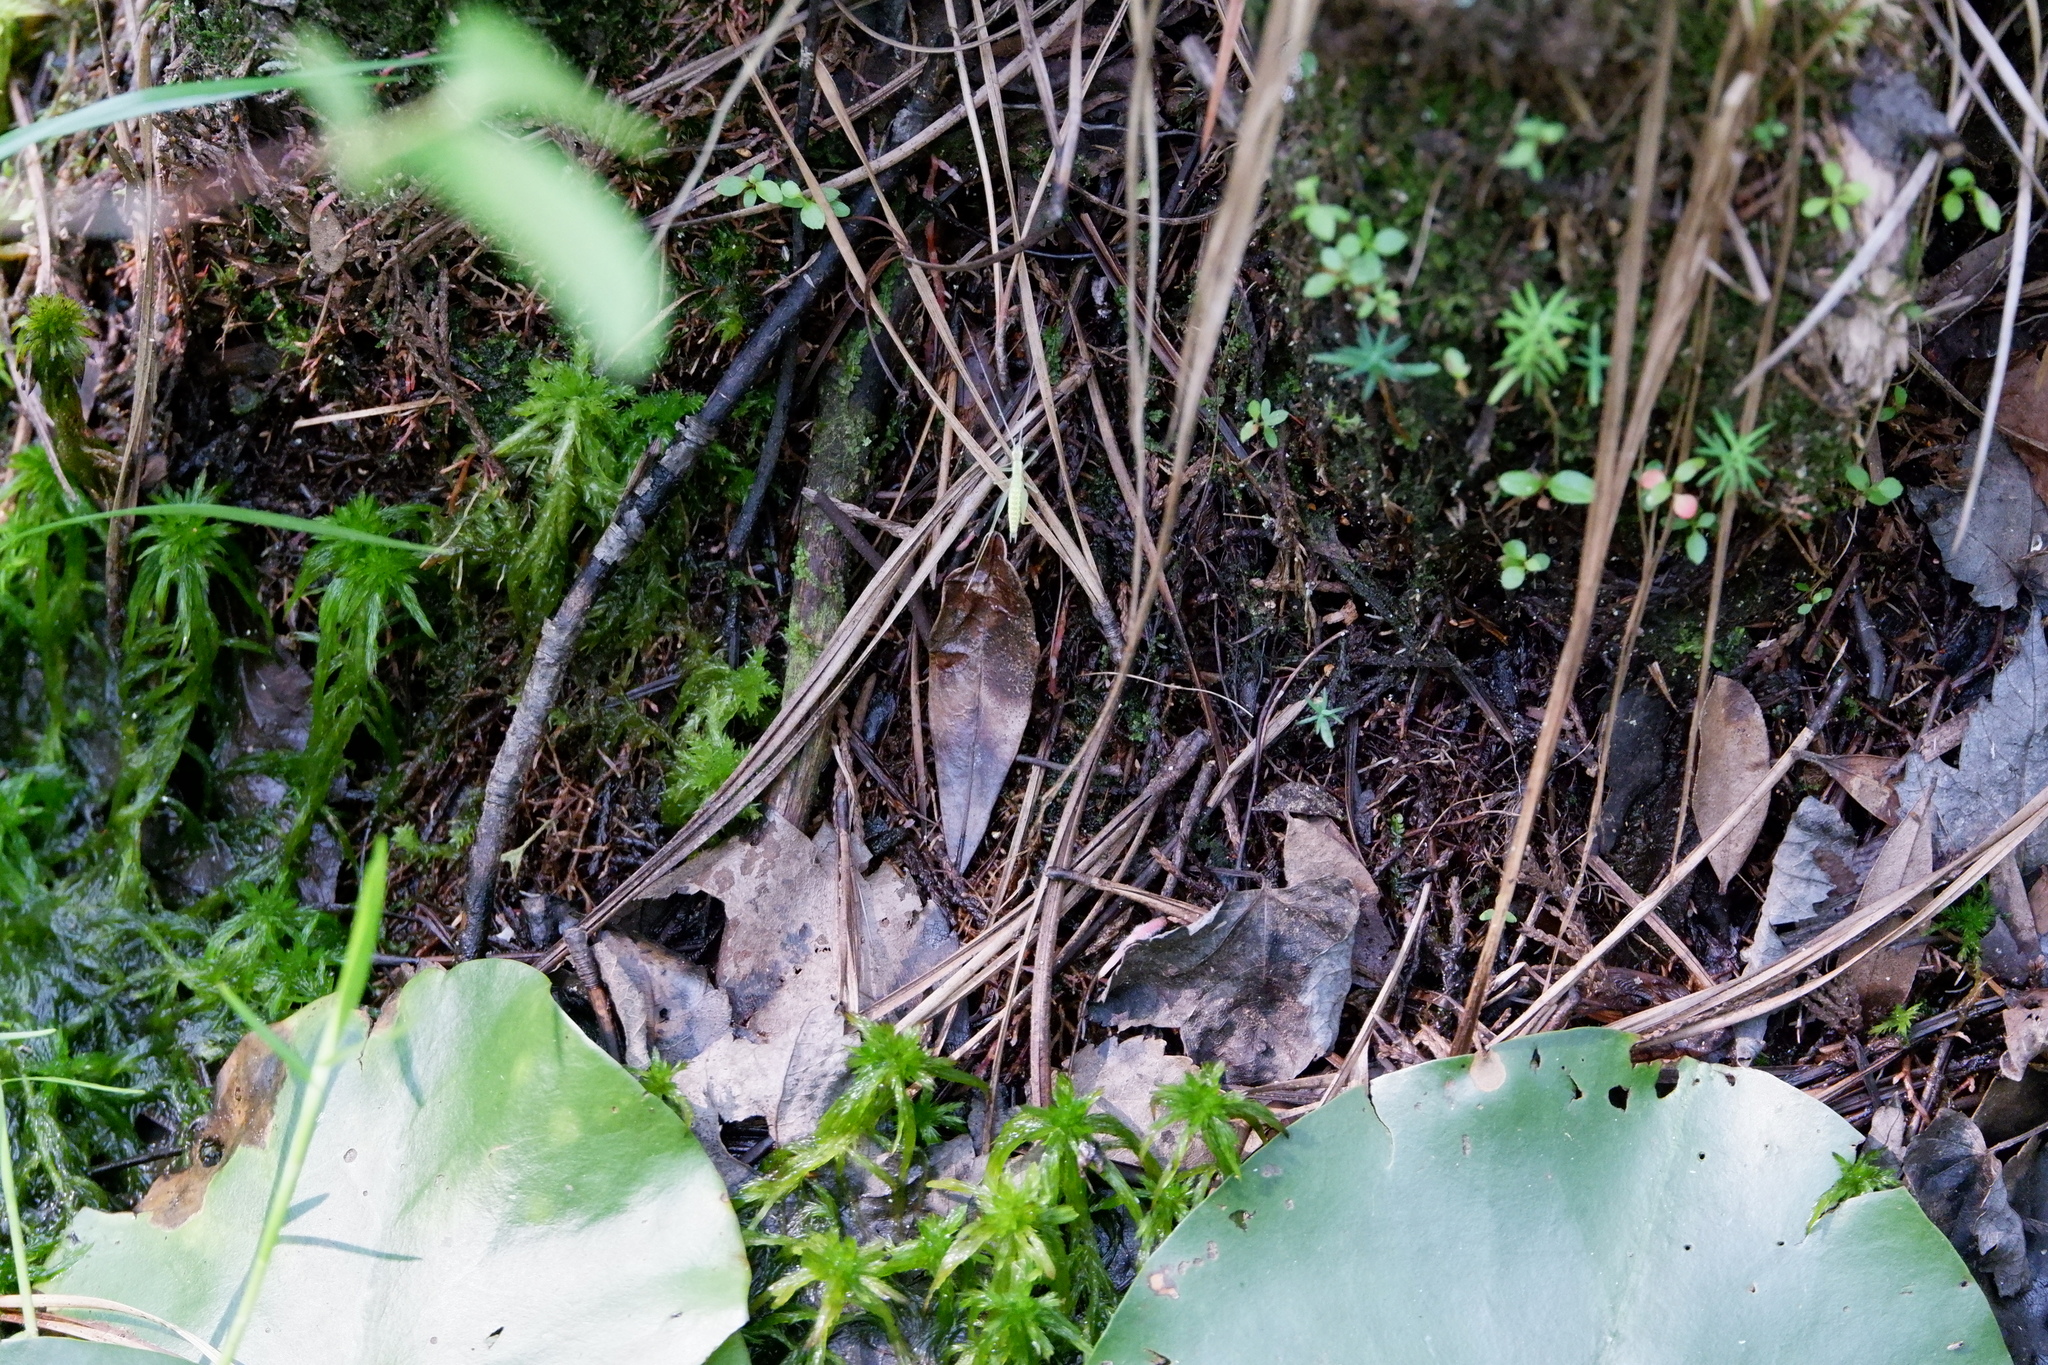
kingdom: Animalia
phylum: Arthropoda
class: Insecta
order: Orthoptera
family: Gryllidae
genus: Oecanthus
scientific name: Oecanthus
